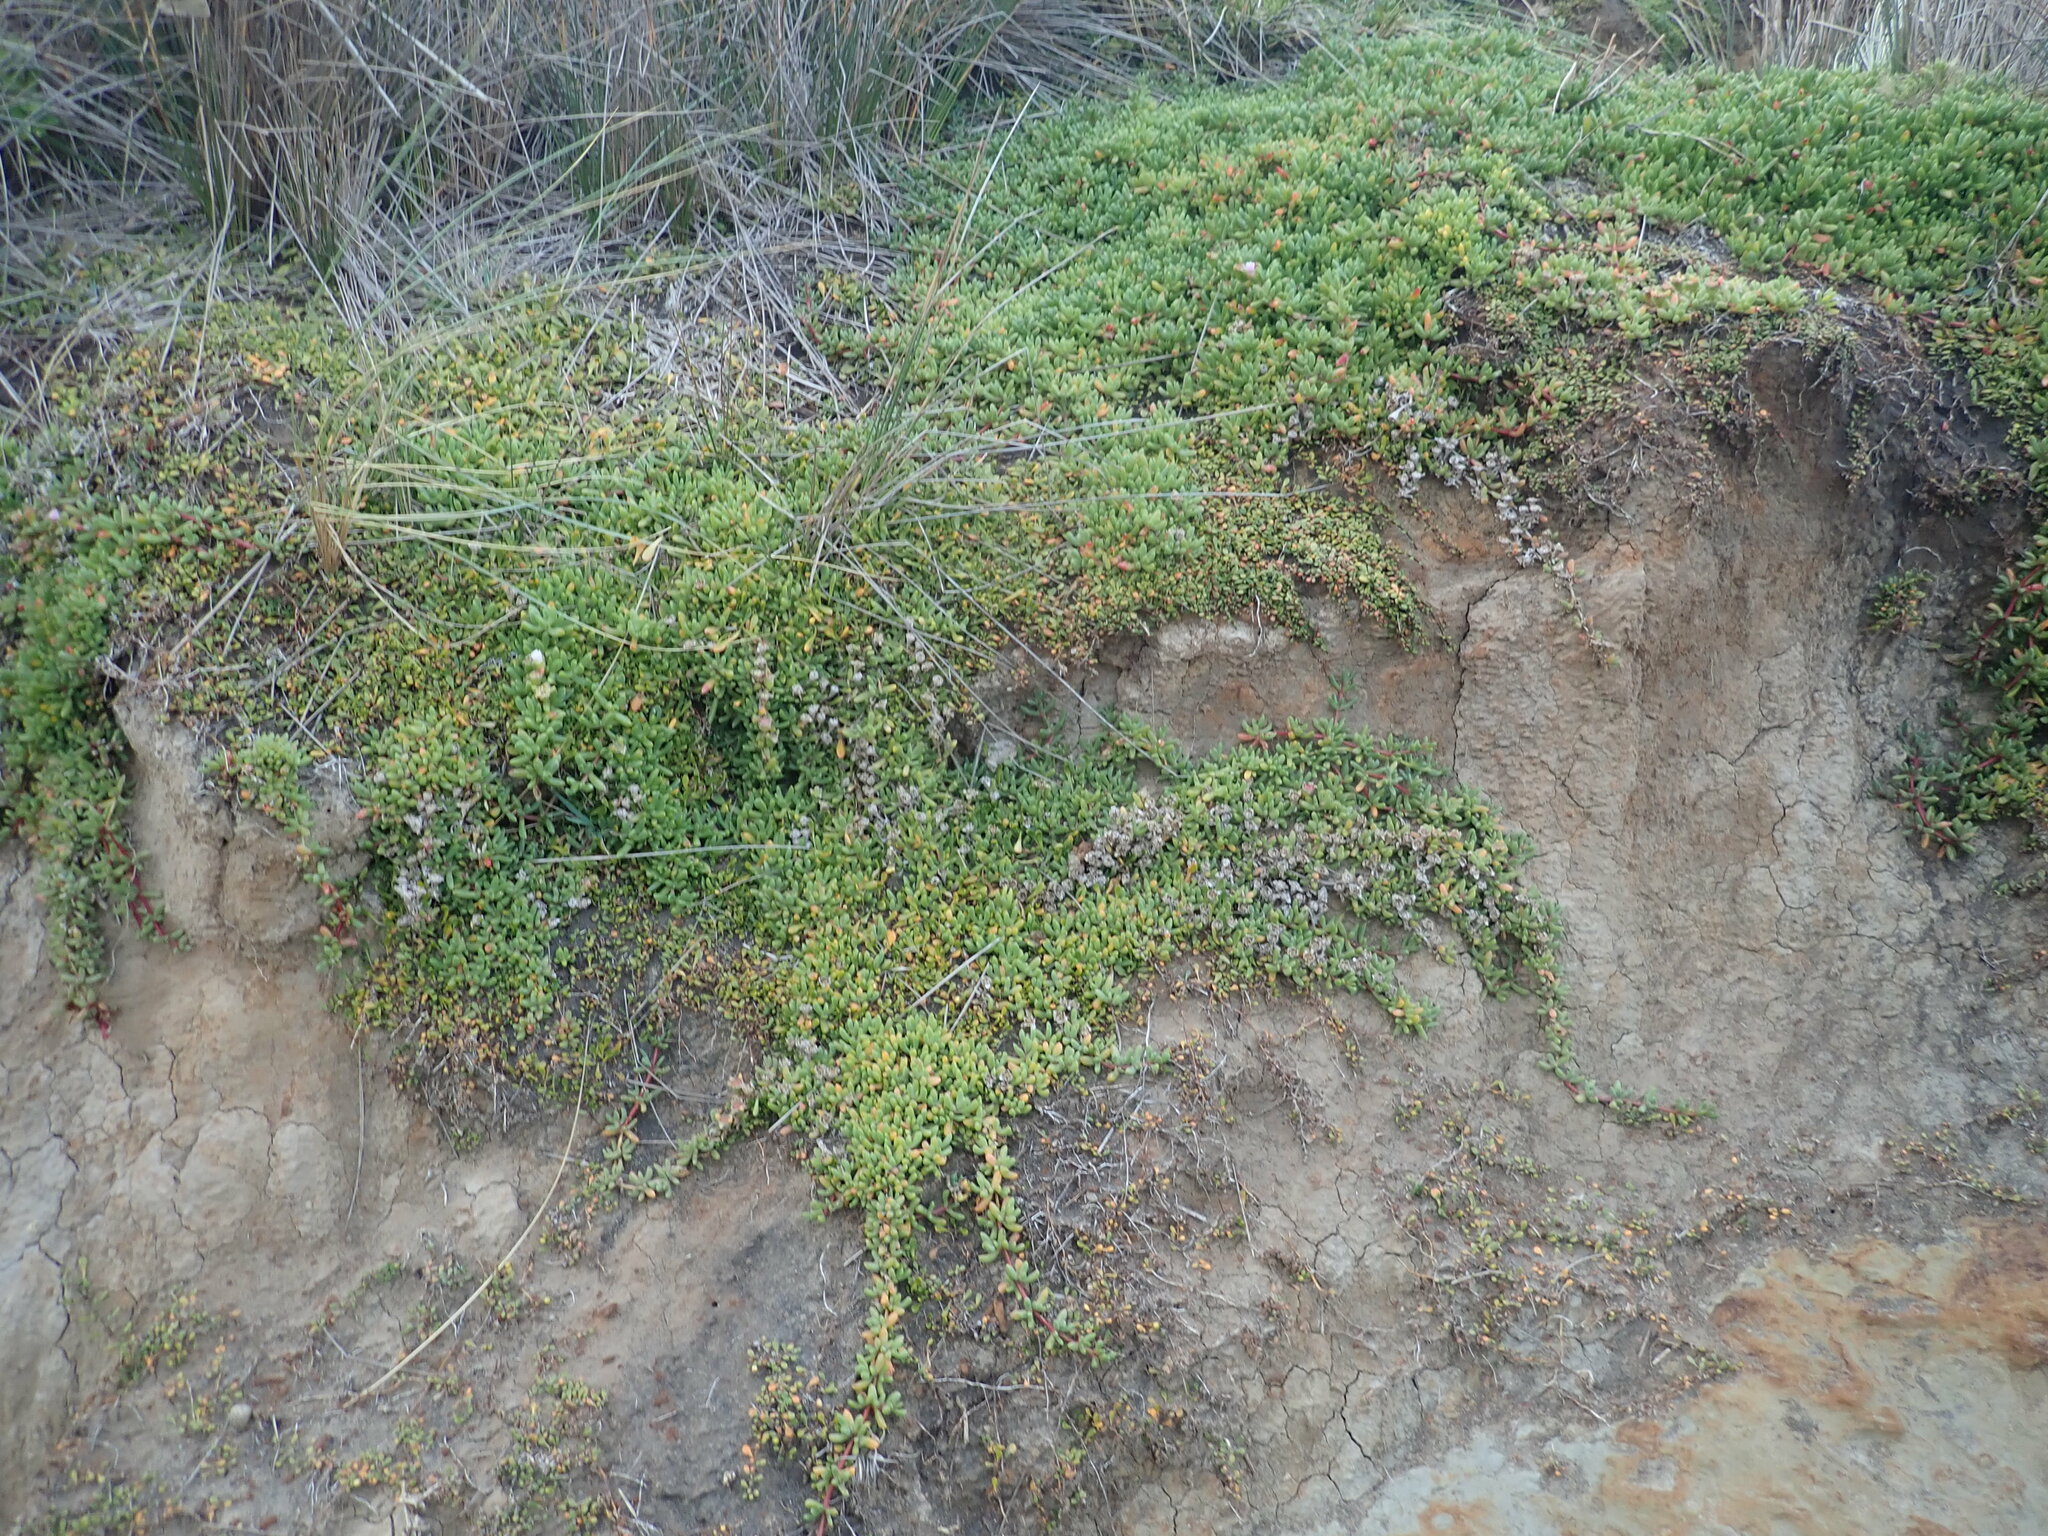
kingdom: Plantae
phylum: Tracheophyta
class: Magnoliopsida
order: Caryophyllales
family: Aizoaceae
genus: Disphyma
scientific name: Disphyma australe
